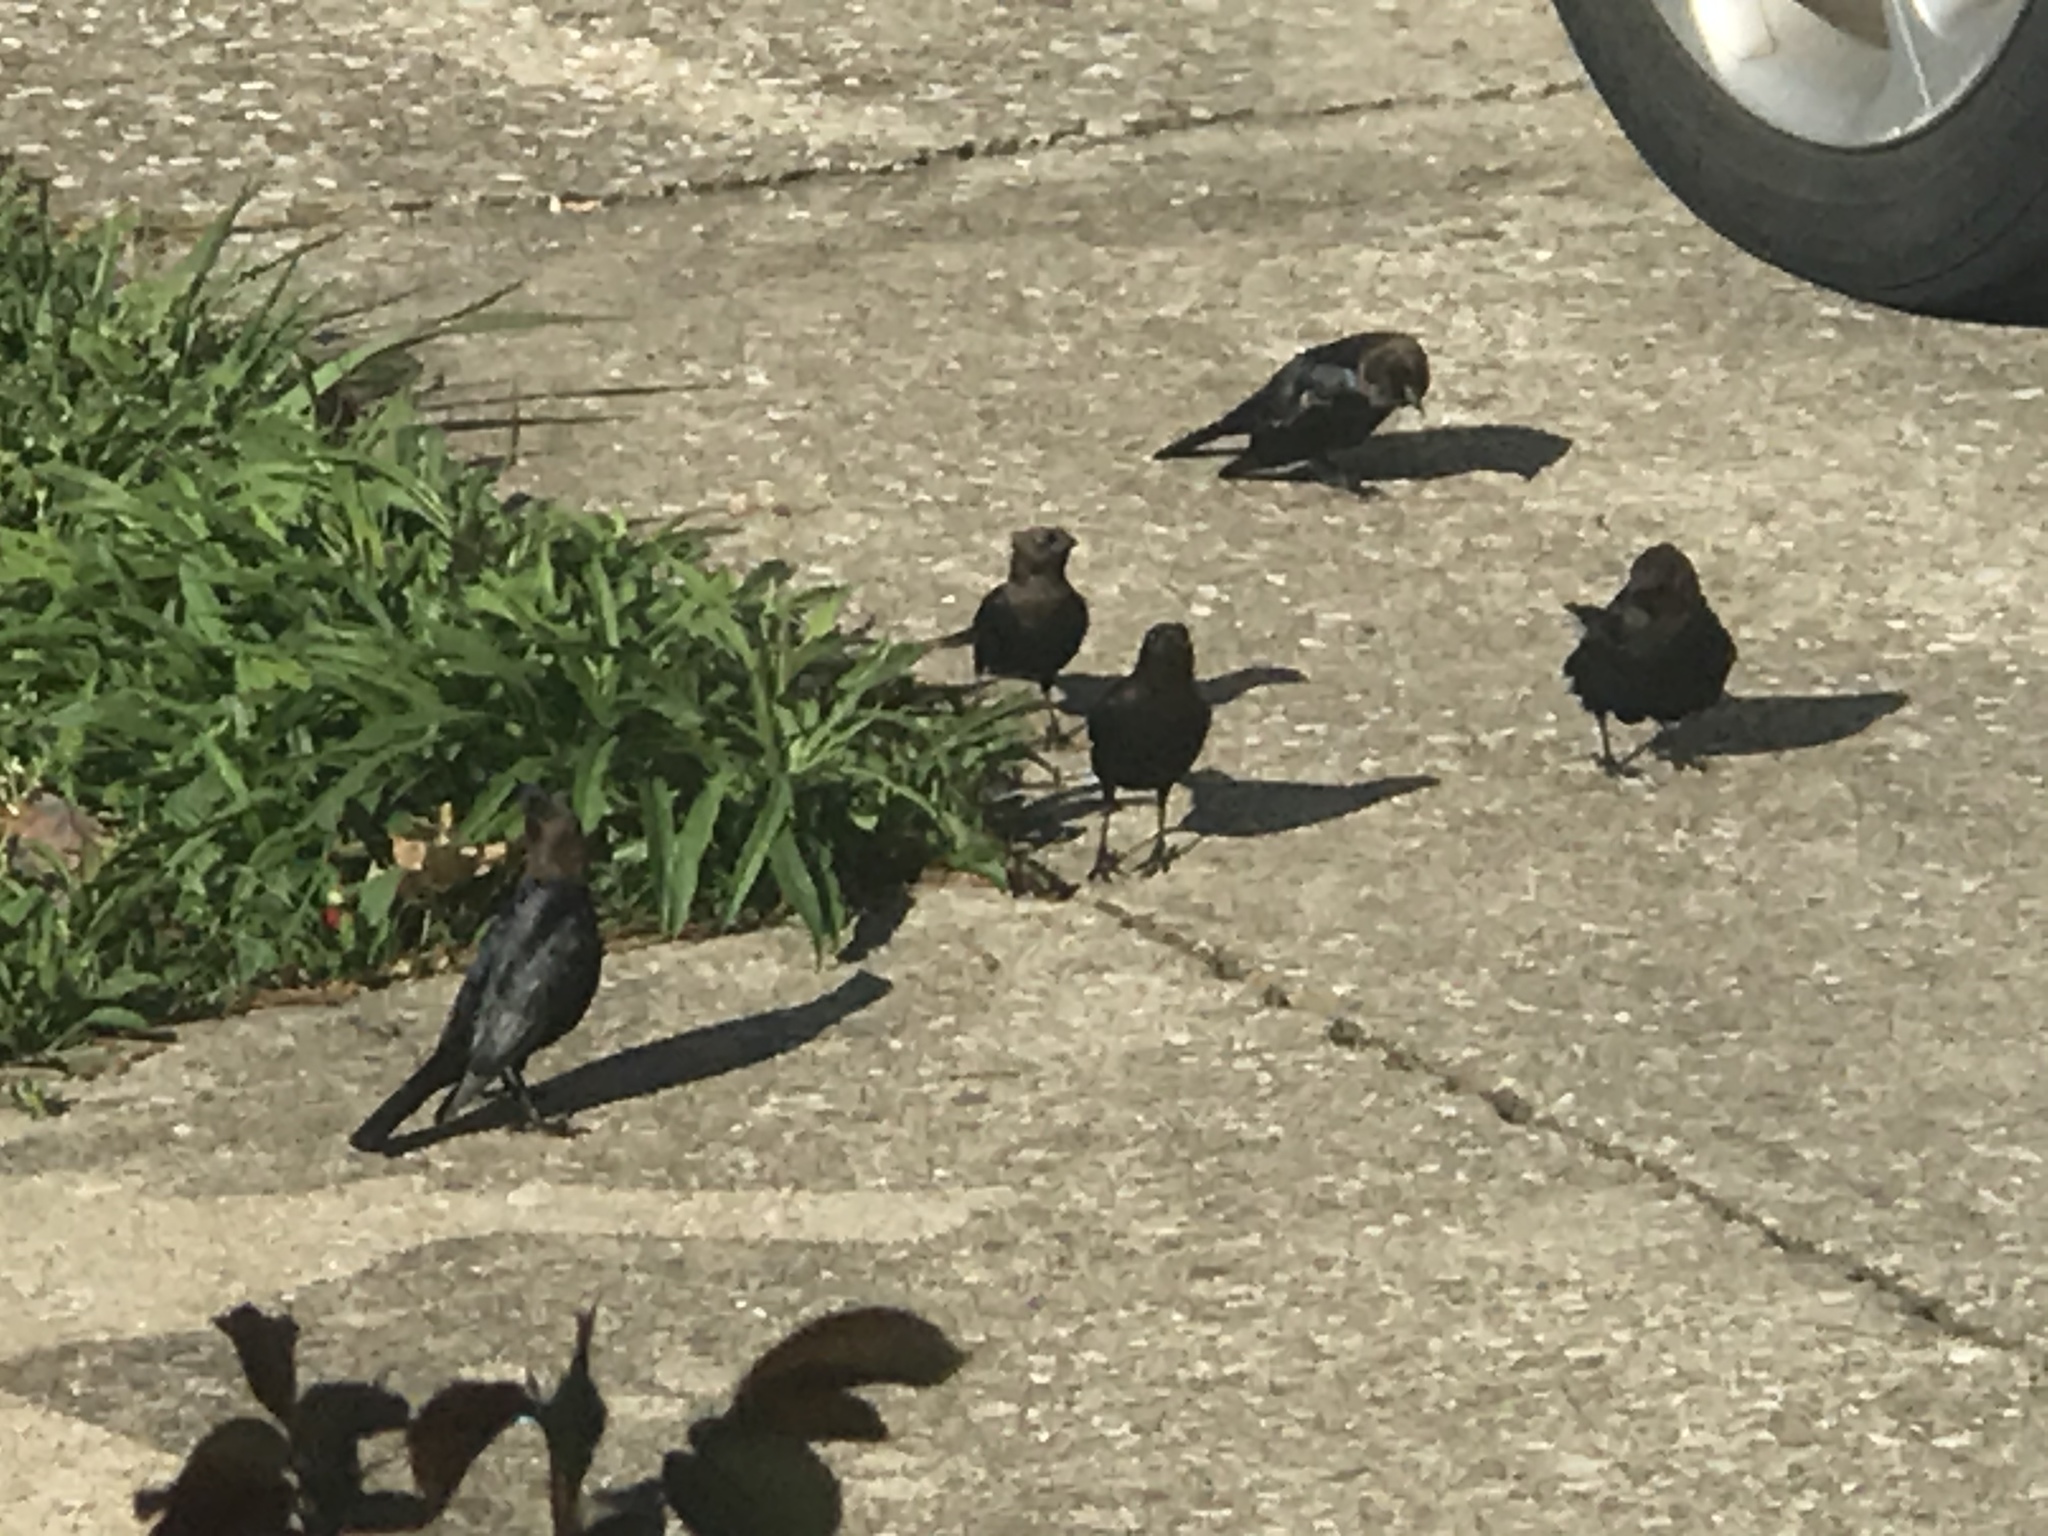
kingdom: Animalia
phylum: Chordata
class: Aves
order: Passeriformes
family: Icteridae
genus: Molothrus
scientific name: Molothrus ater
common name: Brown-headed cowbird
